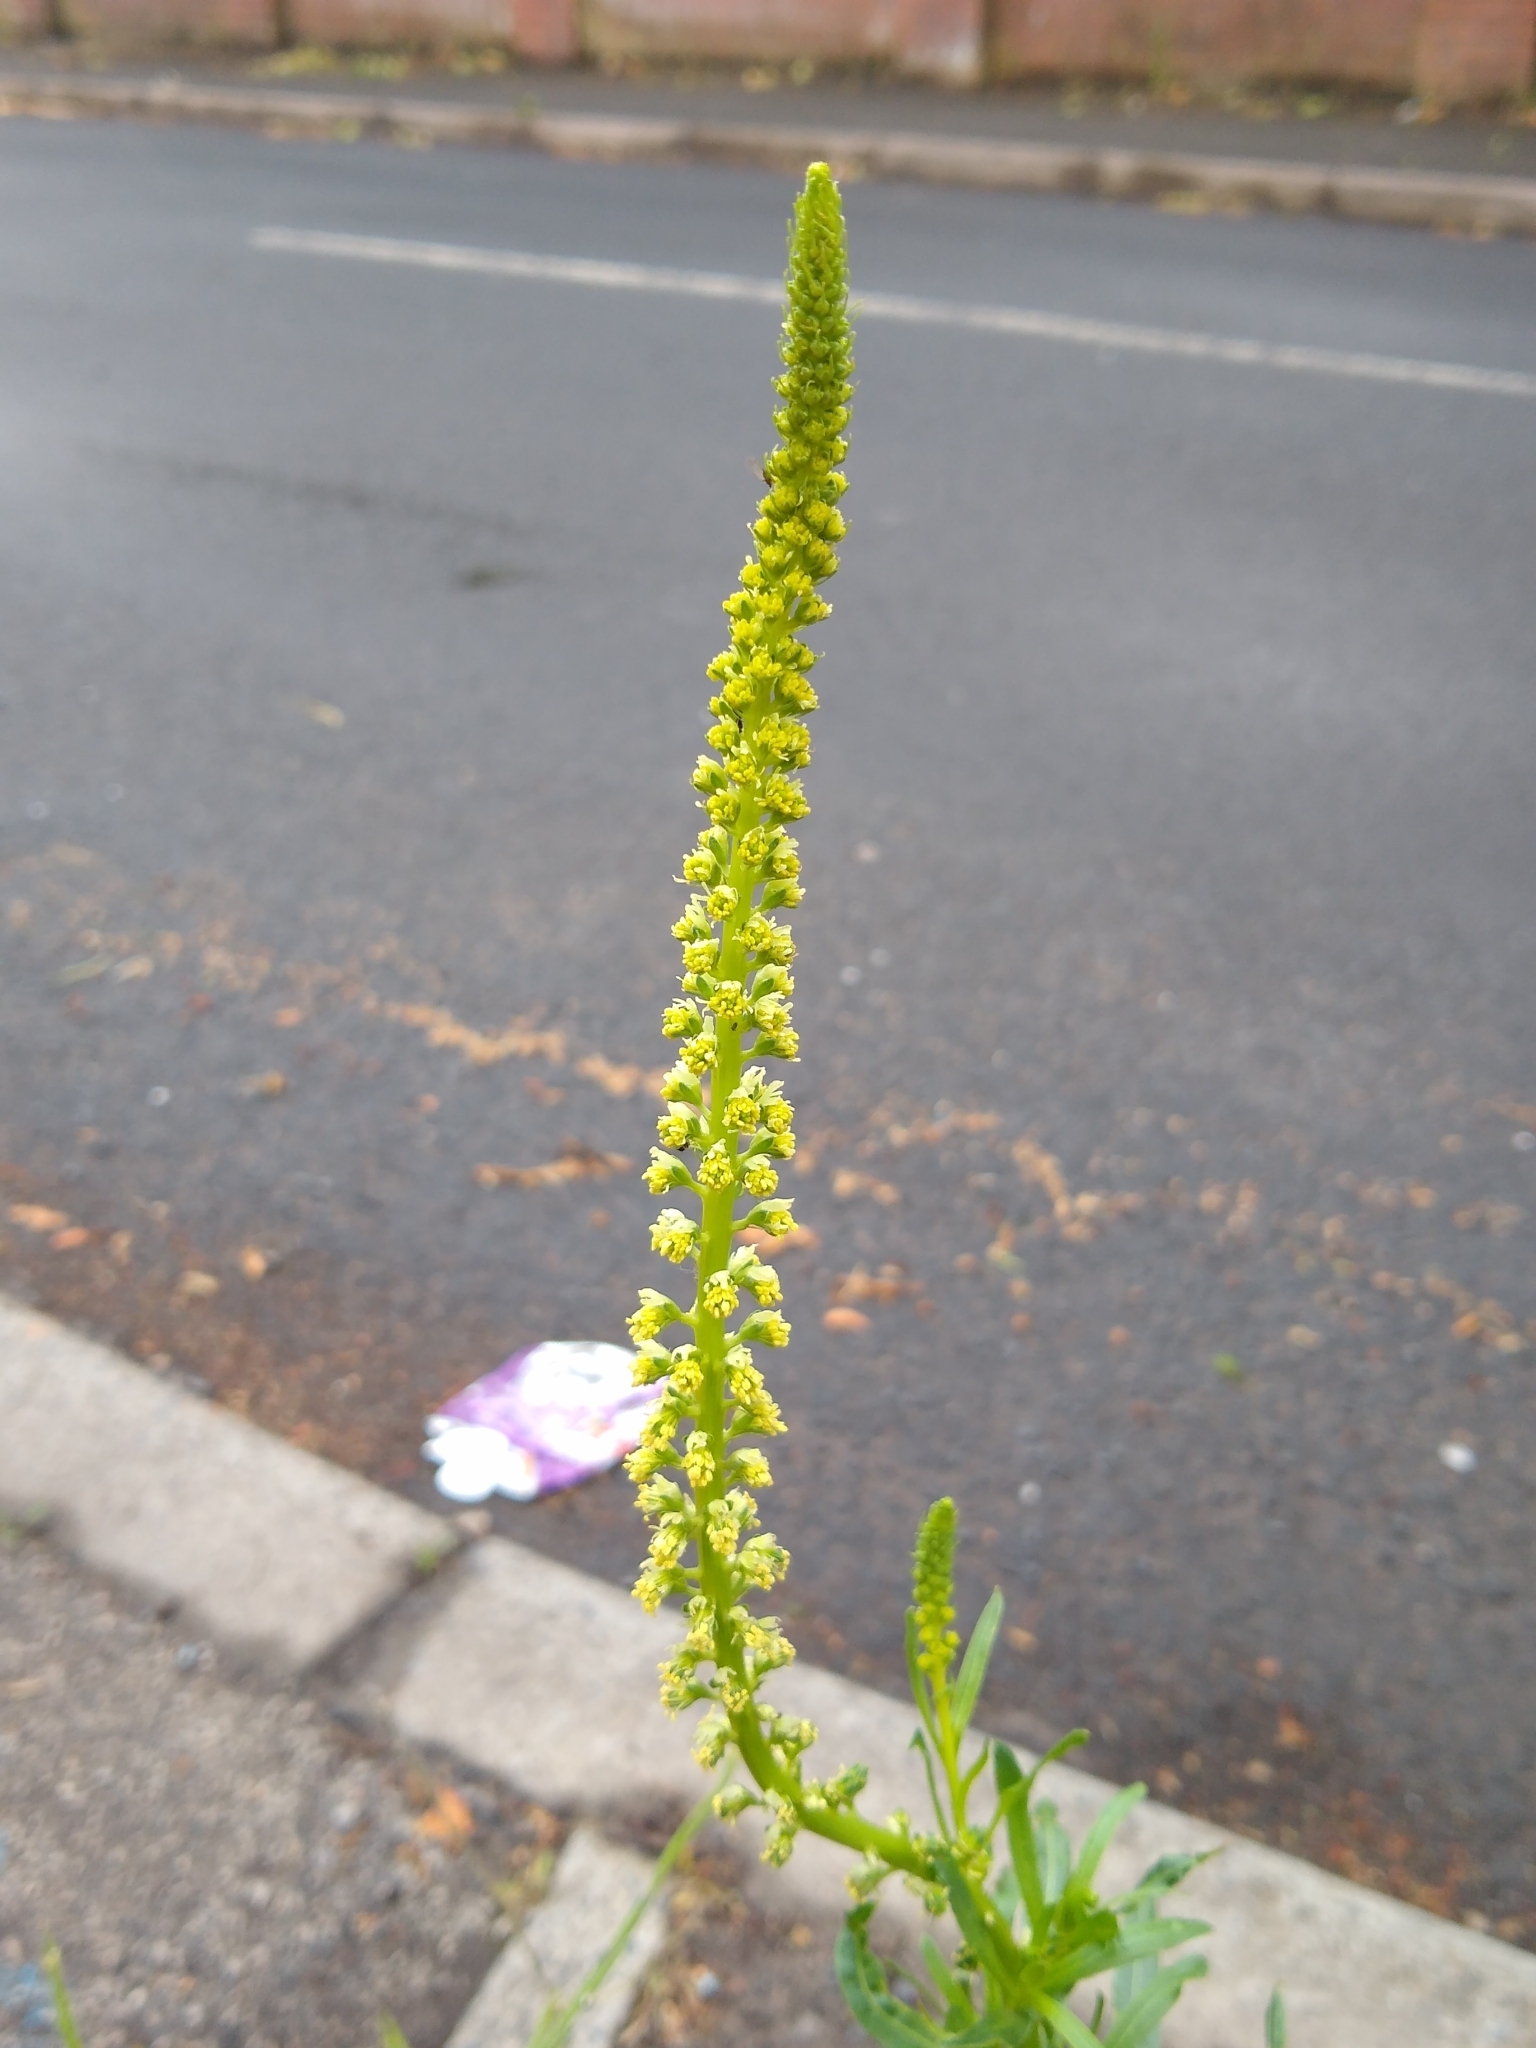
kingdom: Plantae
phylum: Tracheophyta
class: Magnoliopsida
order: Brassicales
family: Resedaceae
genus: Reseda
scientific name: Reseda luteola
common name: Weld
